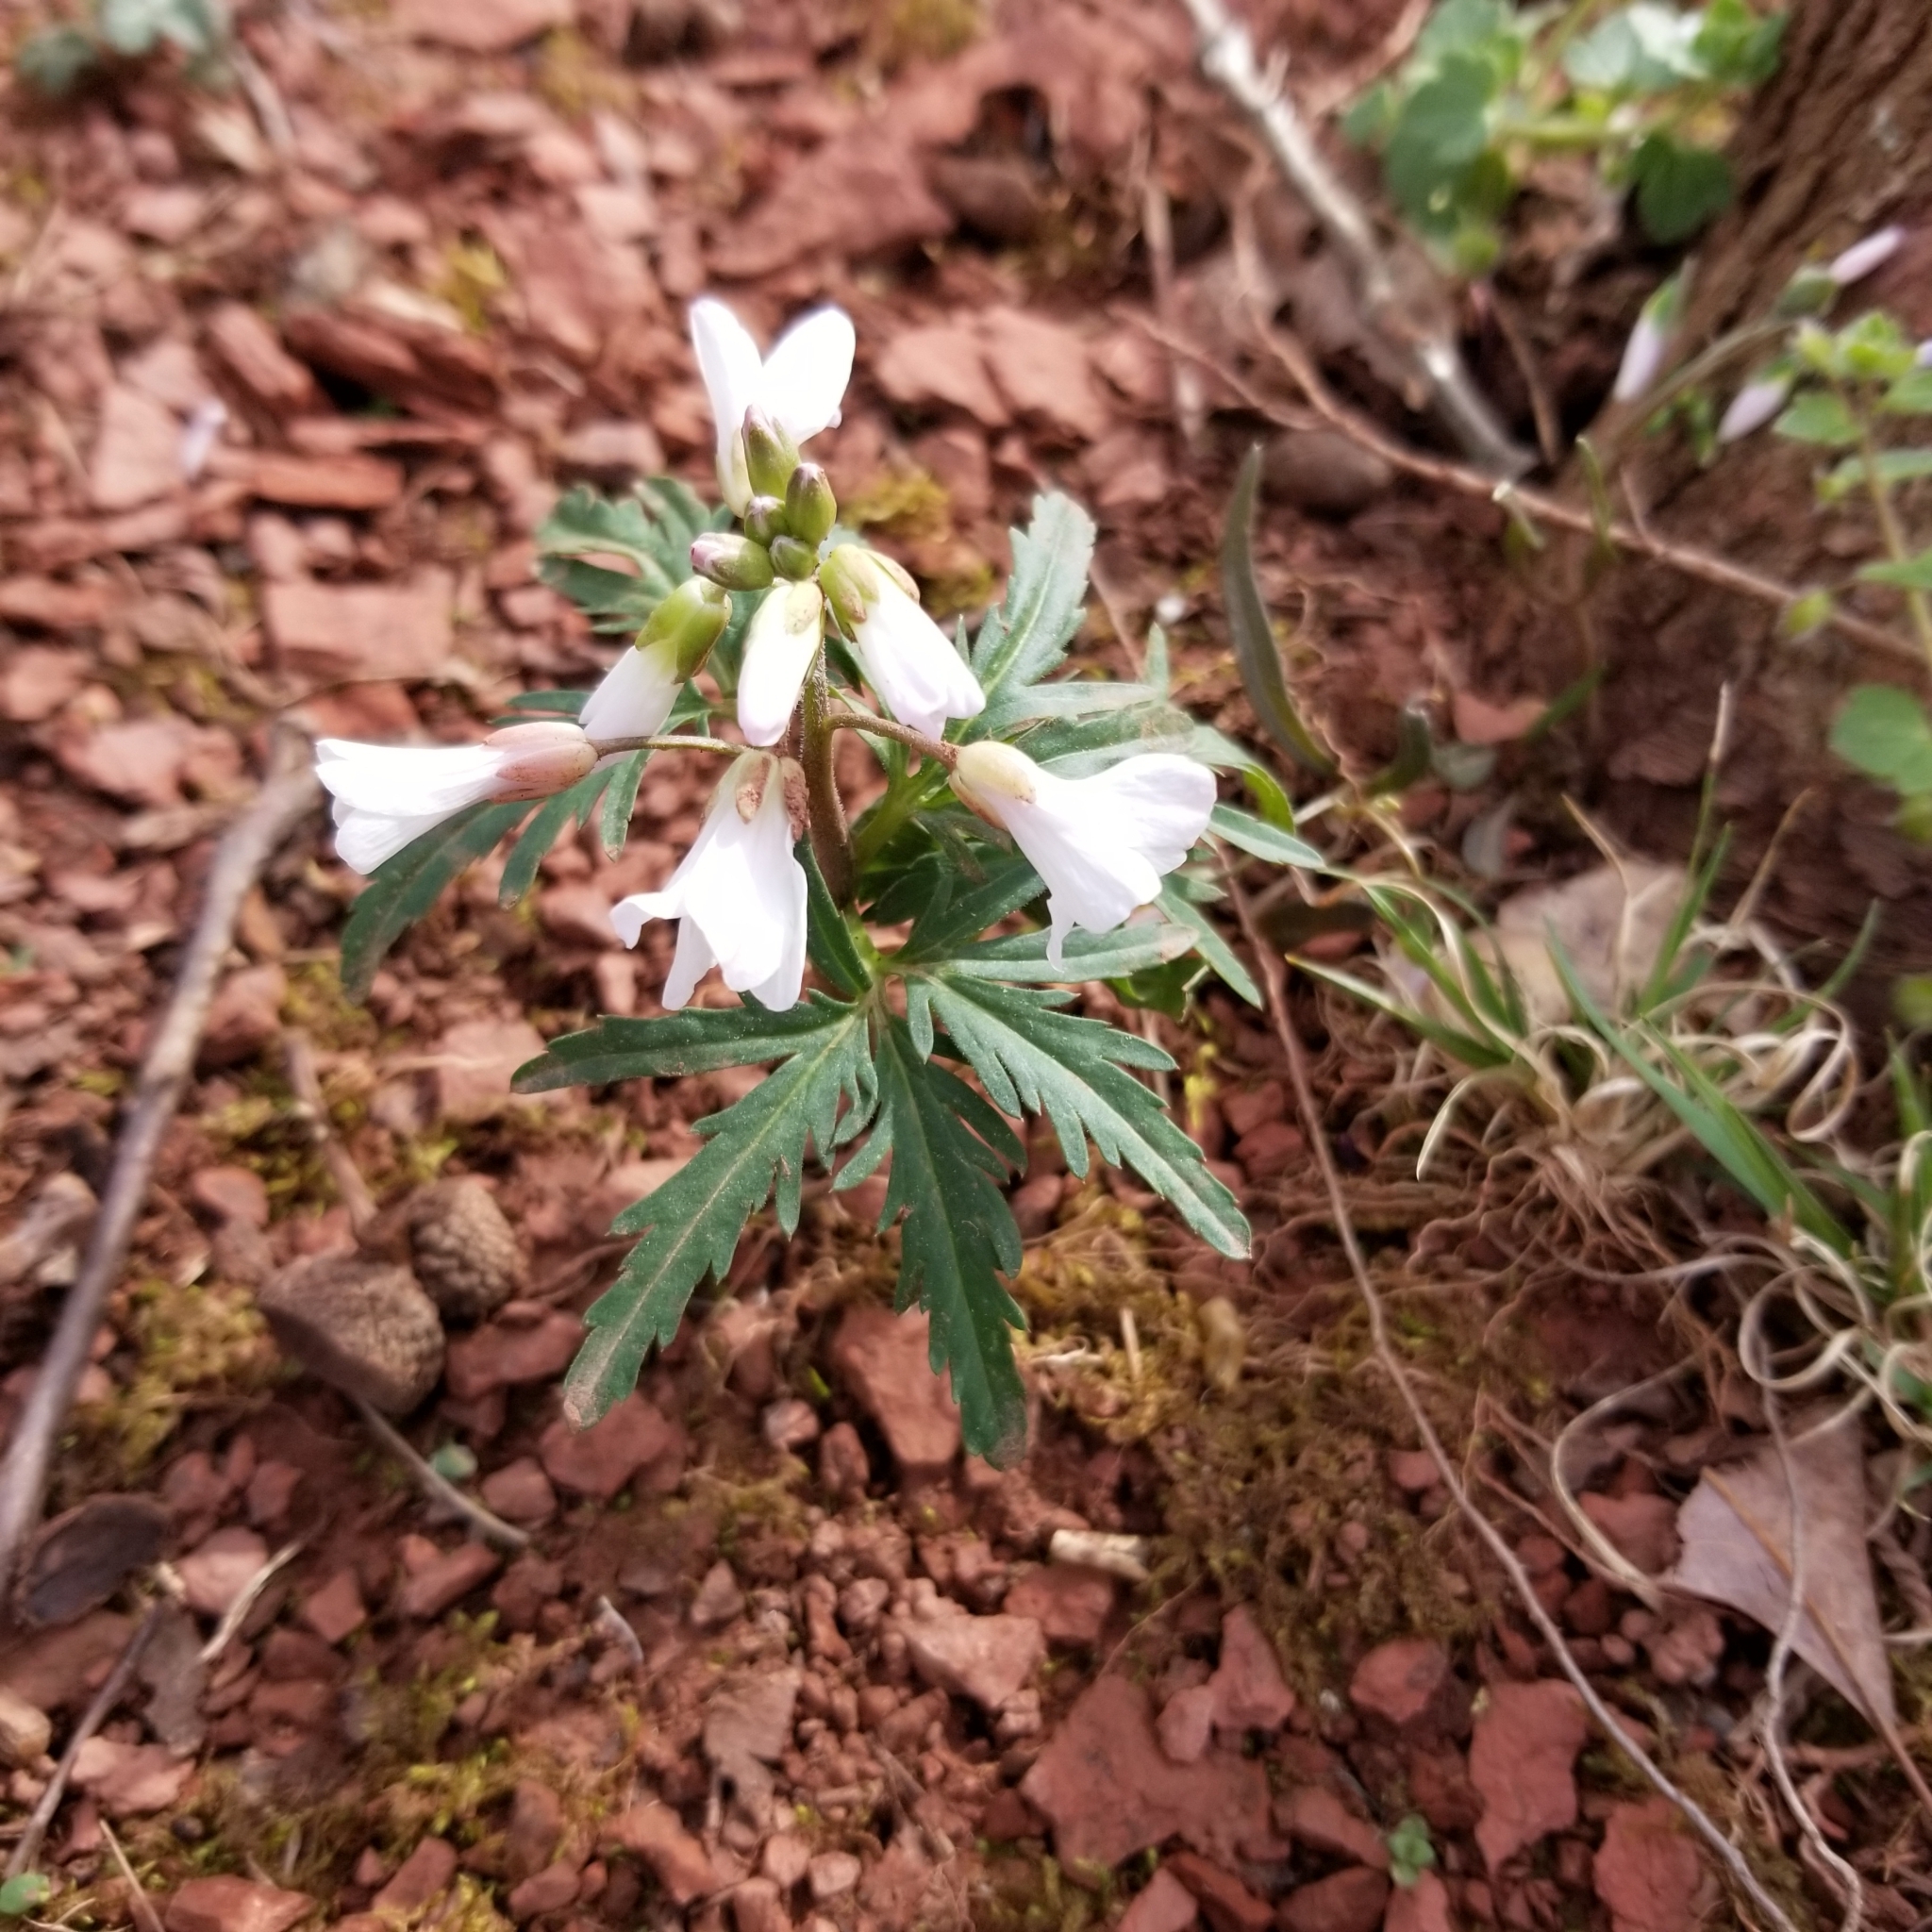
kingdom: Plantae
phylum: Tracheophyta
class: Magnoliopsida
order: Brassicales
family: Brassicaceae
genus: Cardamine
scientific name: Cardamine concatenata
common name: Cut-leaf toothcup
